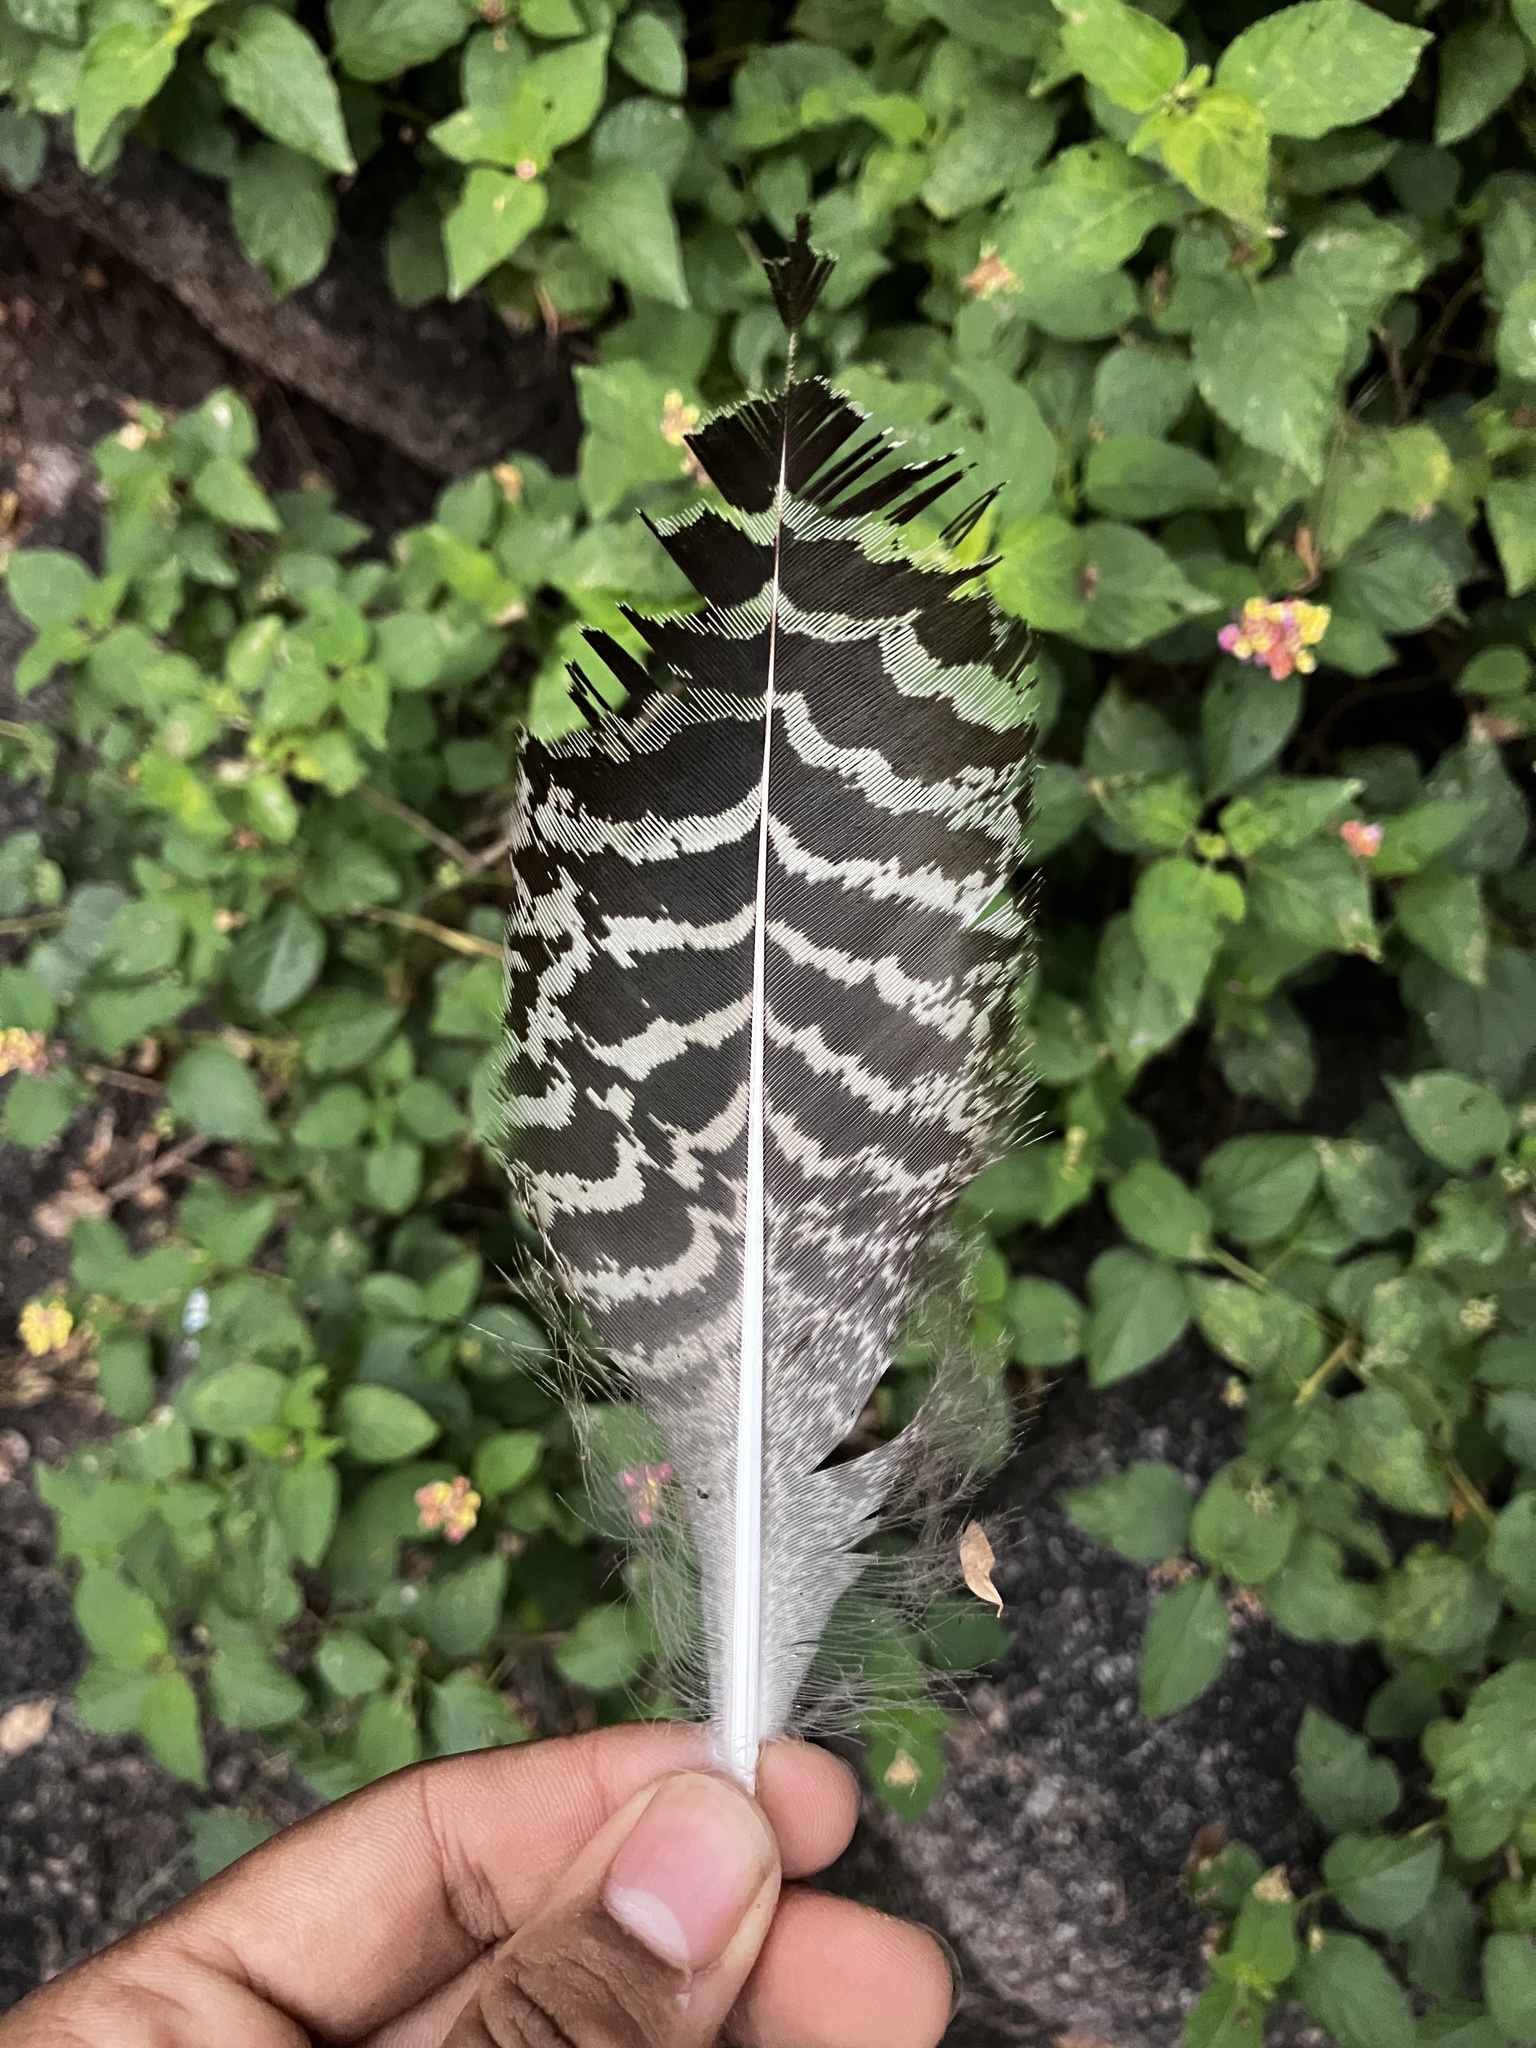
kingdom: Animalia
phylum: Chordata
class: Aves
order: Galliformes
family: Phasianidae
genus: Pavo
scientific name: Pavo cristatus
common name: Indian peafowl
